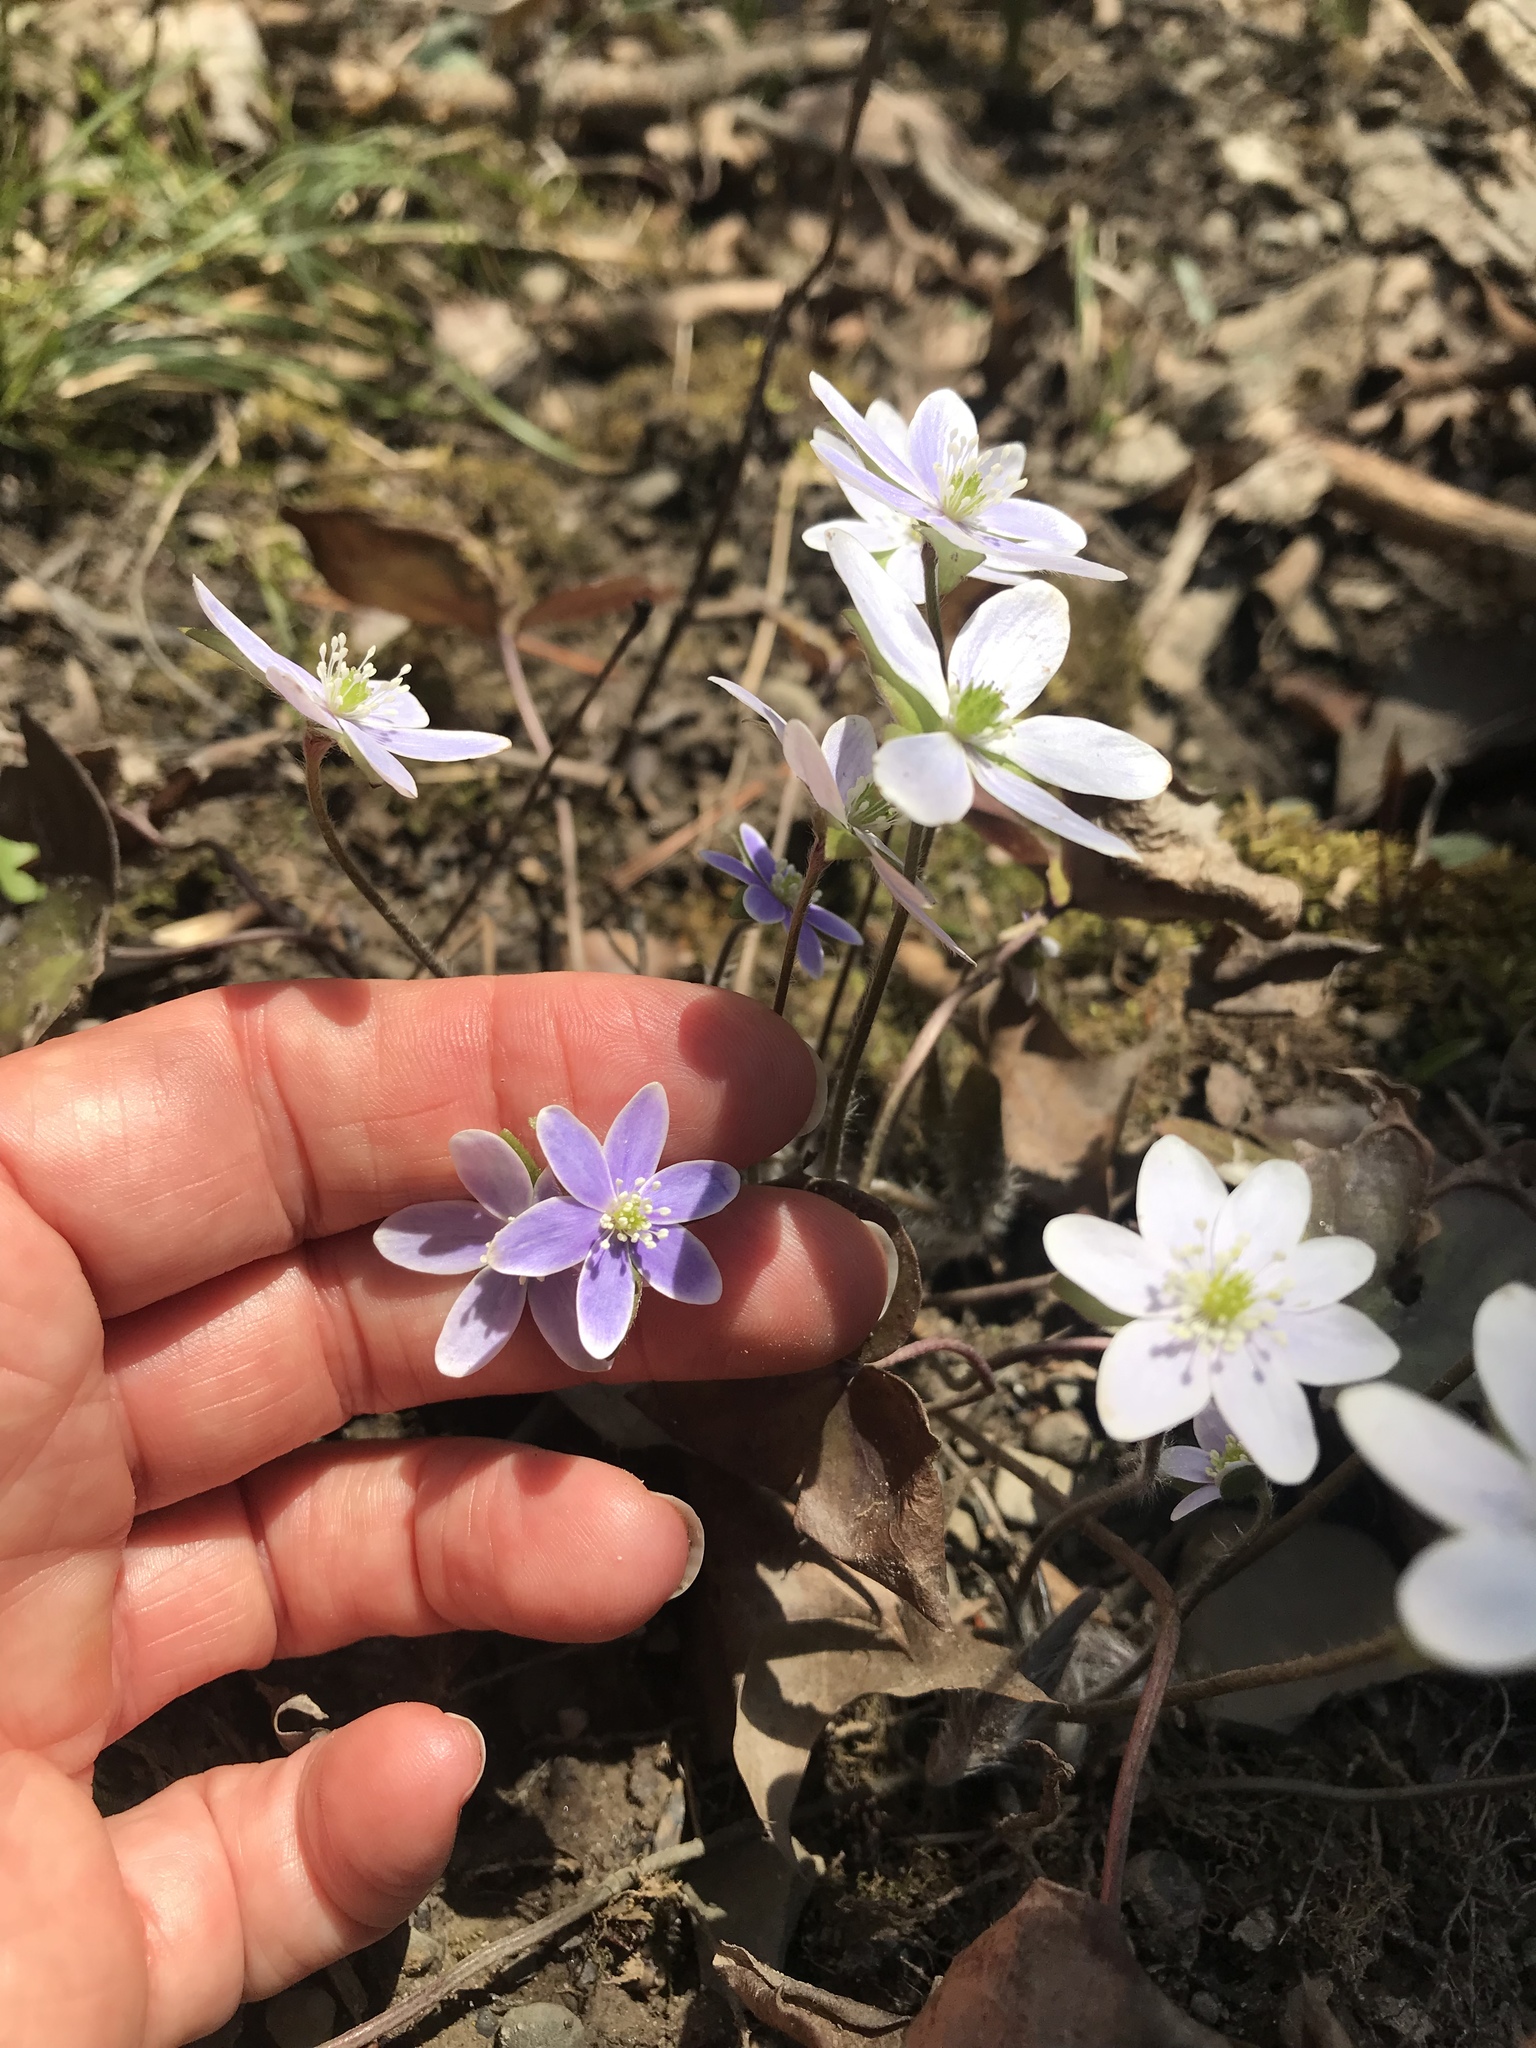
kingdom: Plantae
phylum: Tracheophyta
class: Magnoliopsida
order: Ranunculales
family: Ranunculaceae
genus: Hepatica
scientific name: Hepatica acutiloba
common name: Sharp-lobed hepatica
